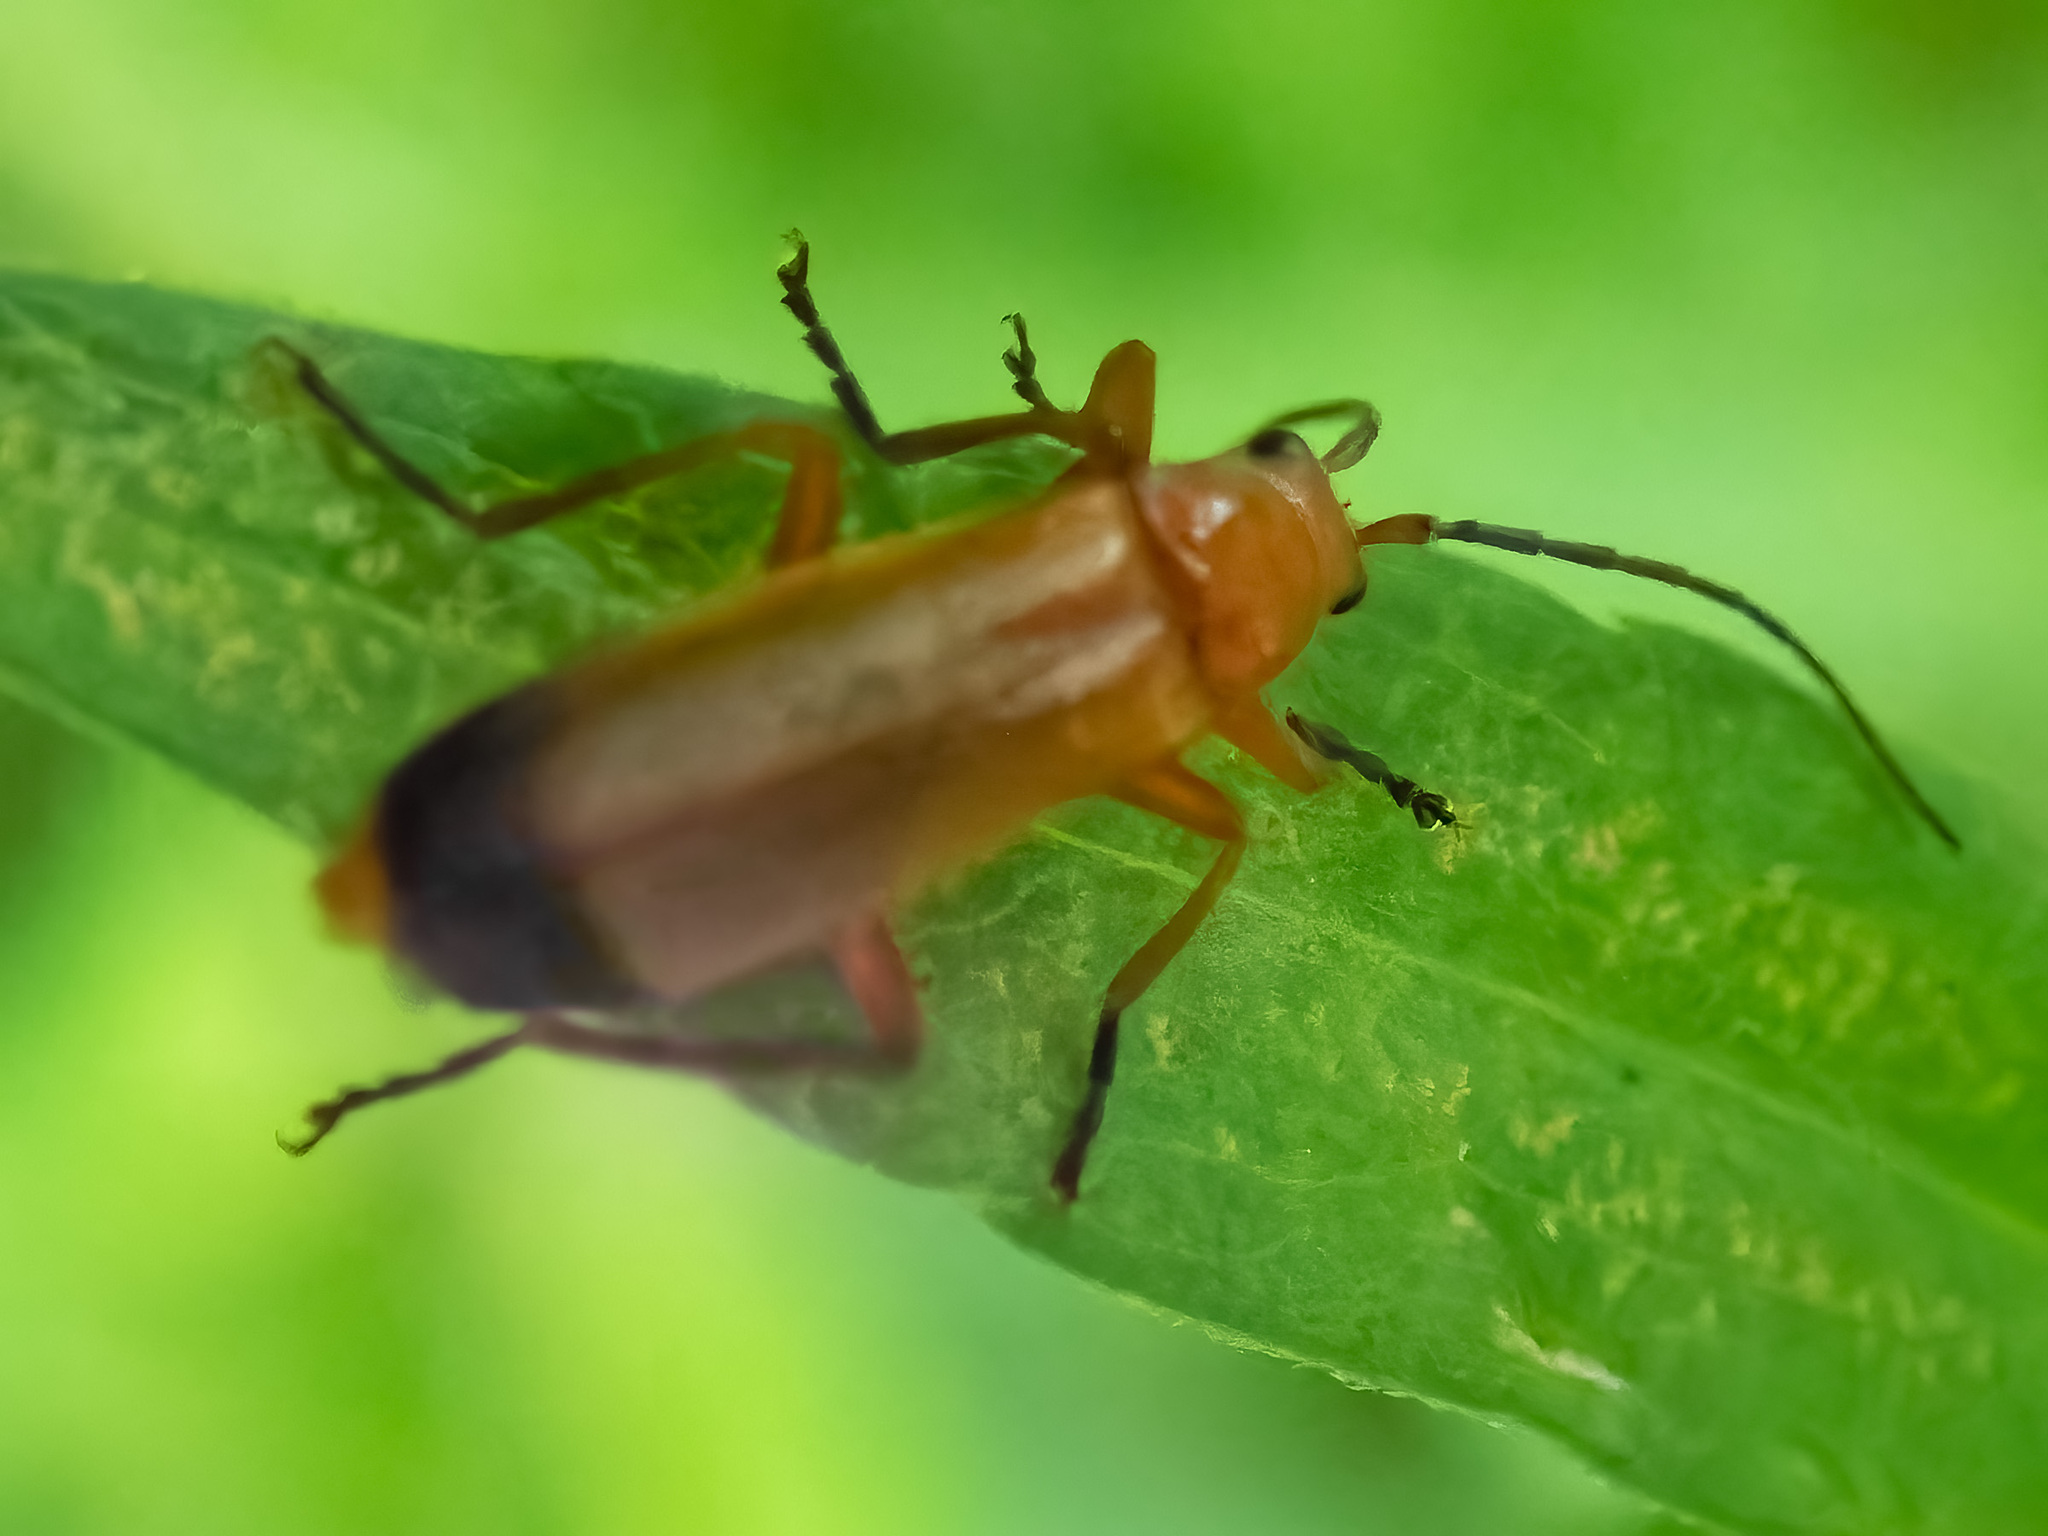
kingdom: Animalia
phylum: Arthropoda
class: Insecta
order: Coleoptera
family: Cantharidae
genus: Rhagonycha
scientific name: Rhagonycha fulva
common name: Common red soldier beetle
